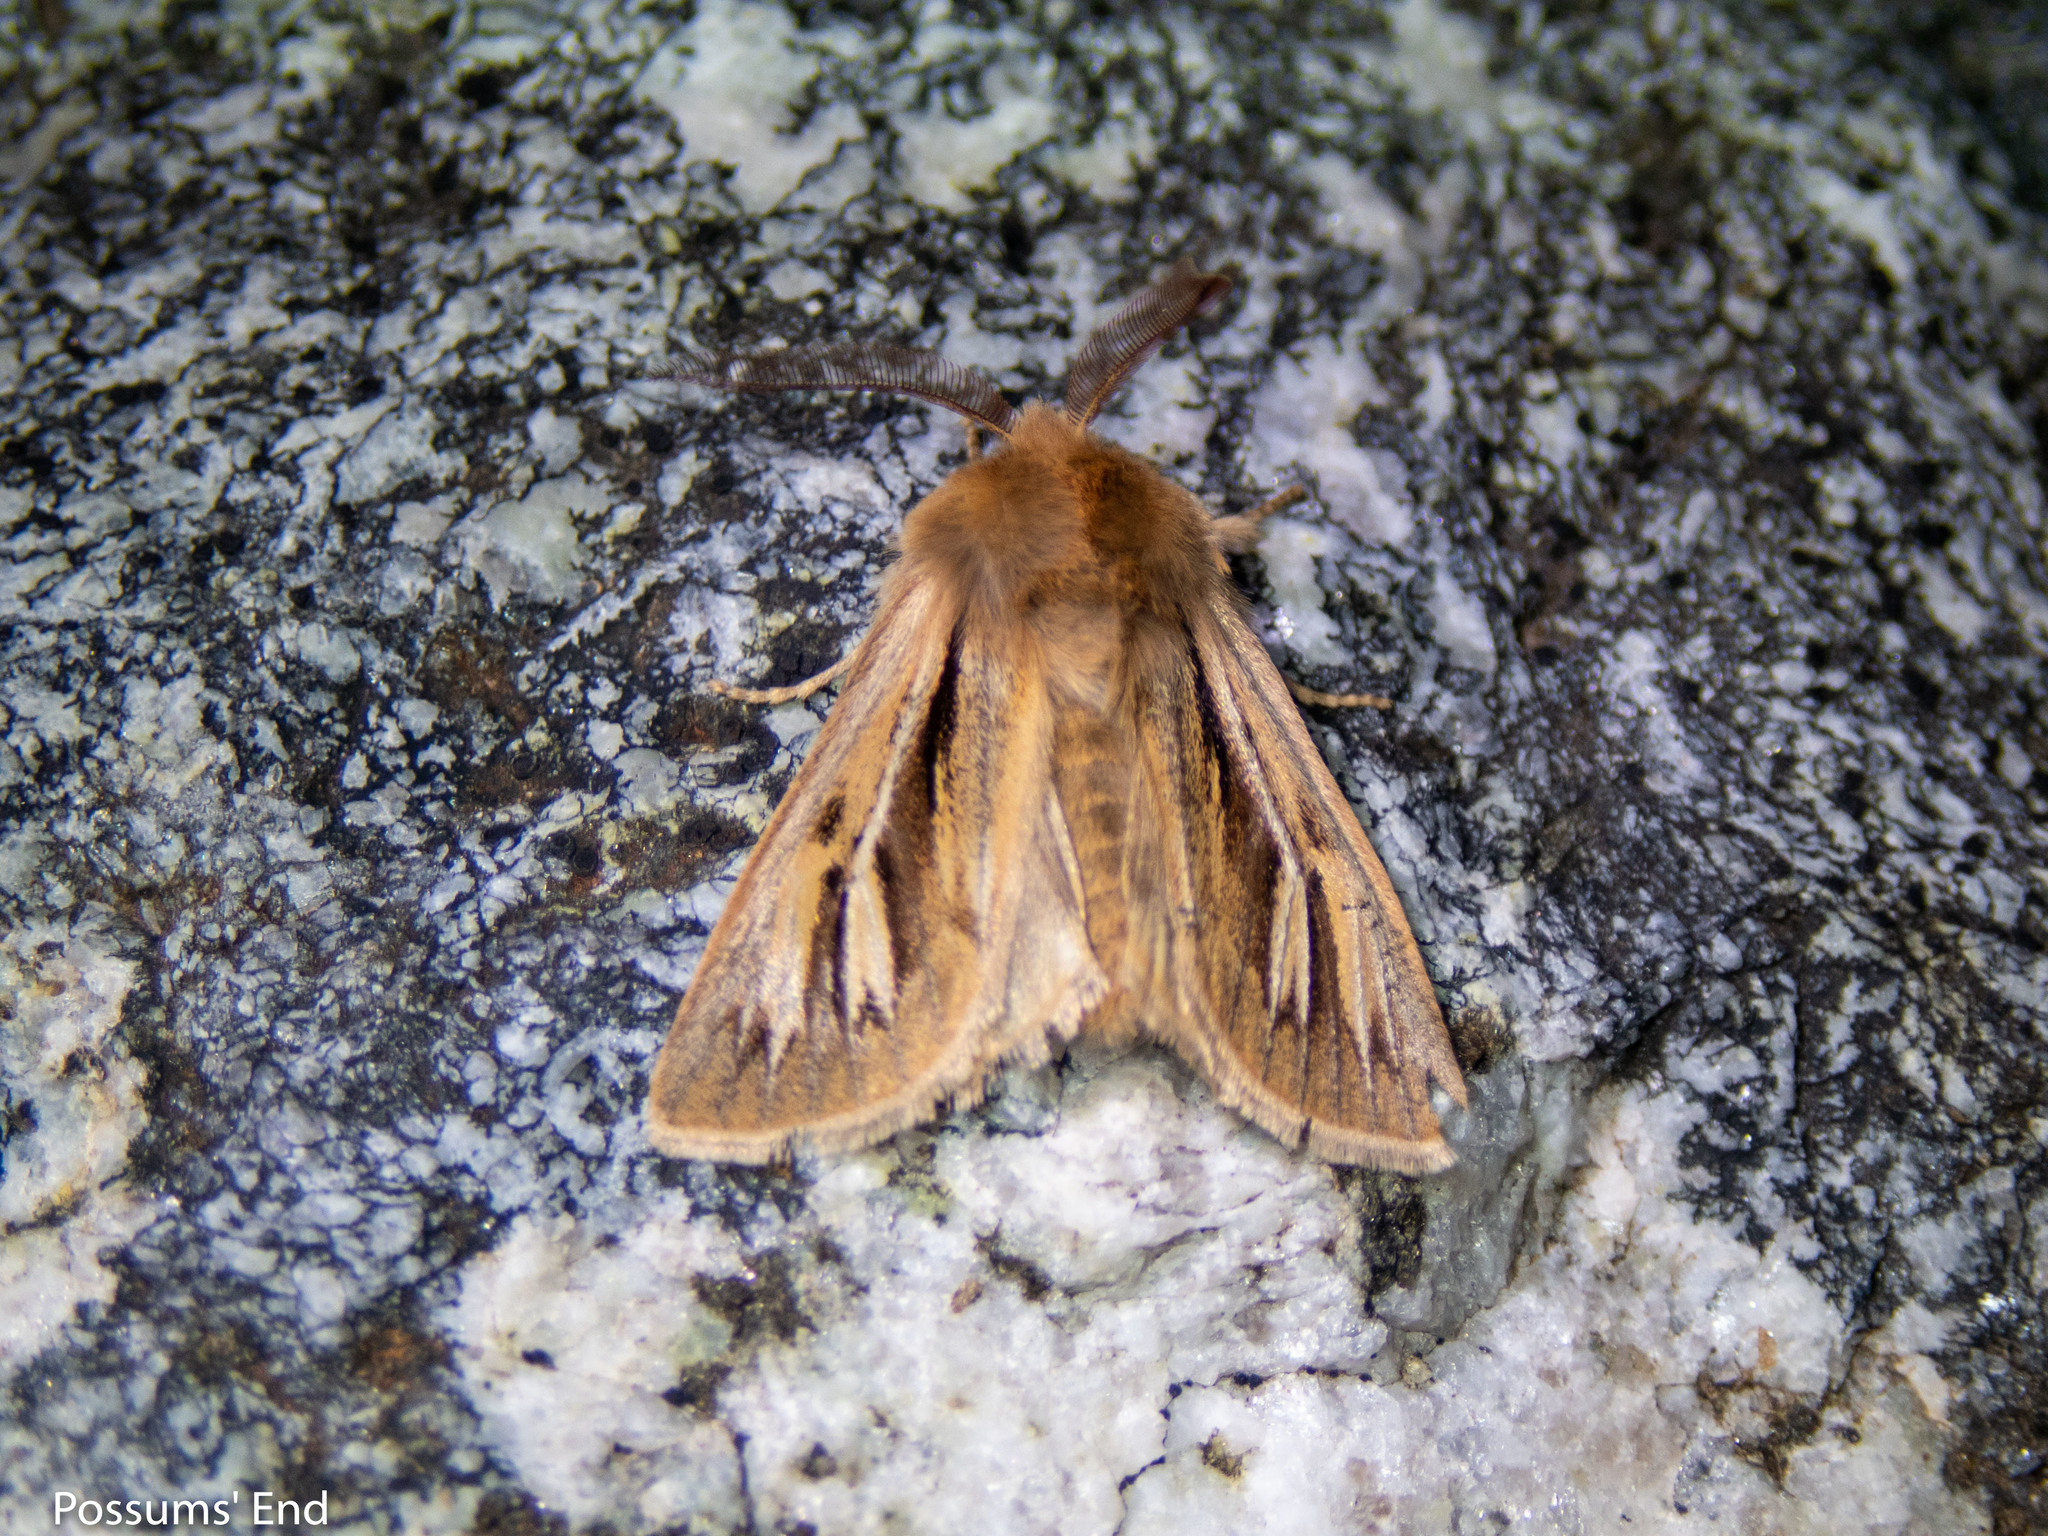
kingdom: Animalia
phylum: Arthropoda
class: Insecta
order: Lepidoptera
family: Noctuidae
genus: Ichneutica
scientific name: Ichneutica caraunias
